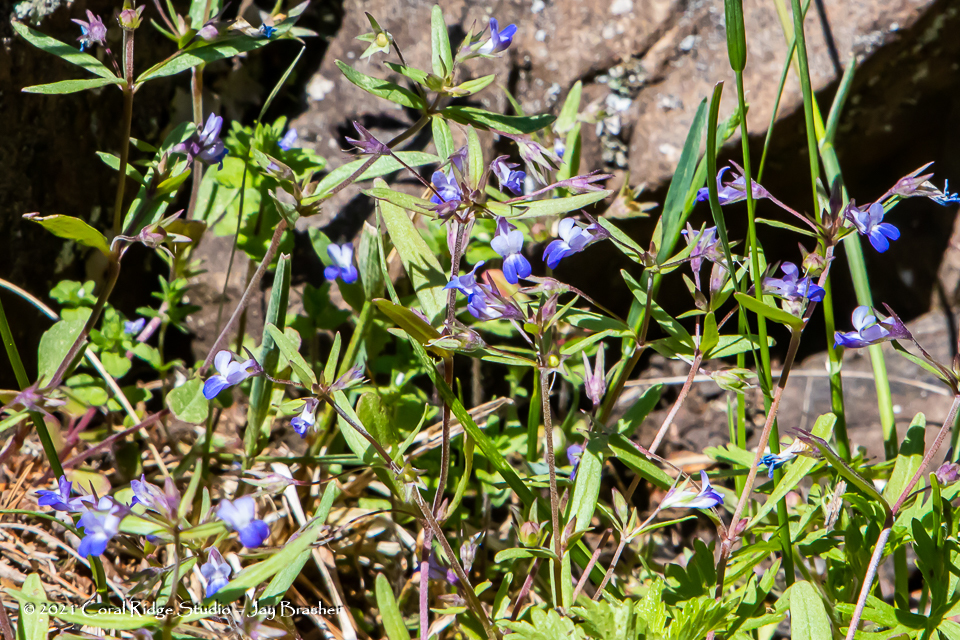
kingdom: Plantae
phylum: Tracheophyta
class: Magnoliopsida
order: Lamiales
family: Plantaginaceae
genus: Collinsia
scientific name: Collinsia parviflora
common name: Blue-lips
